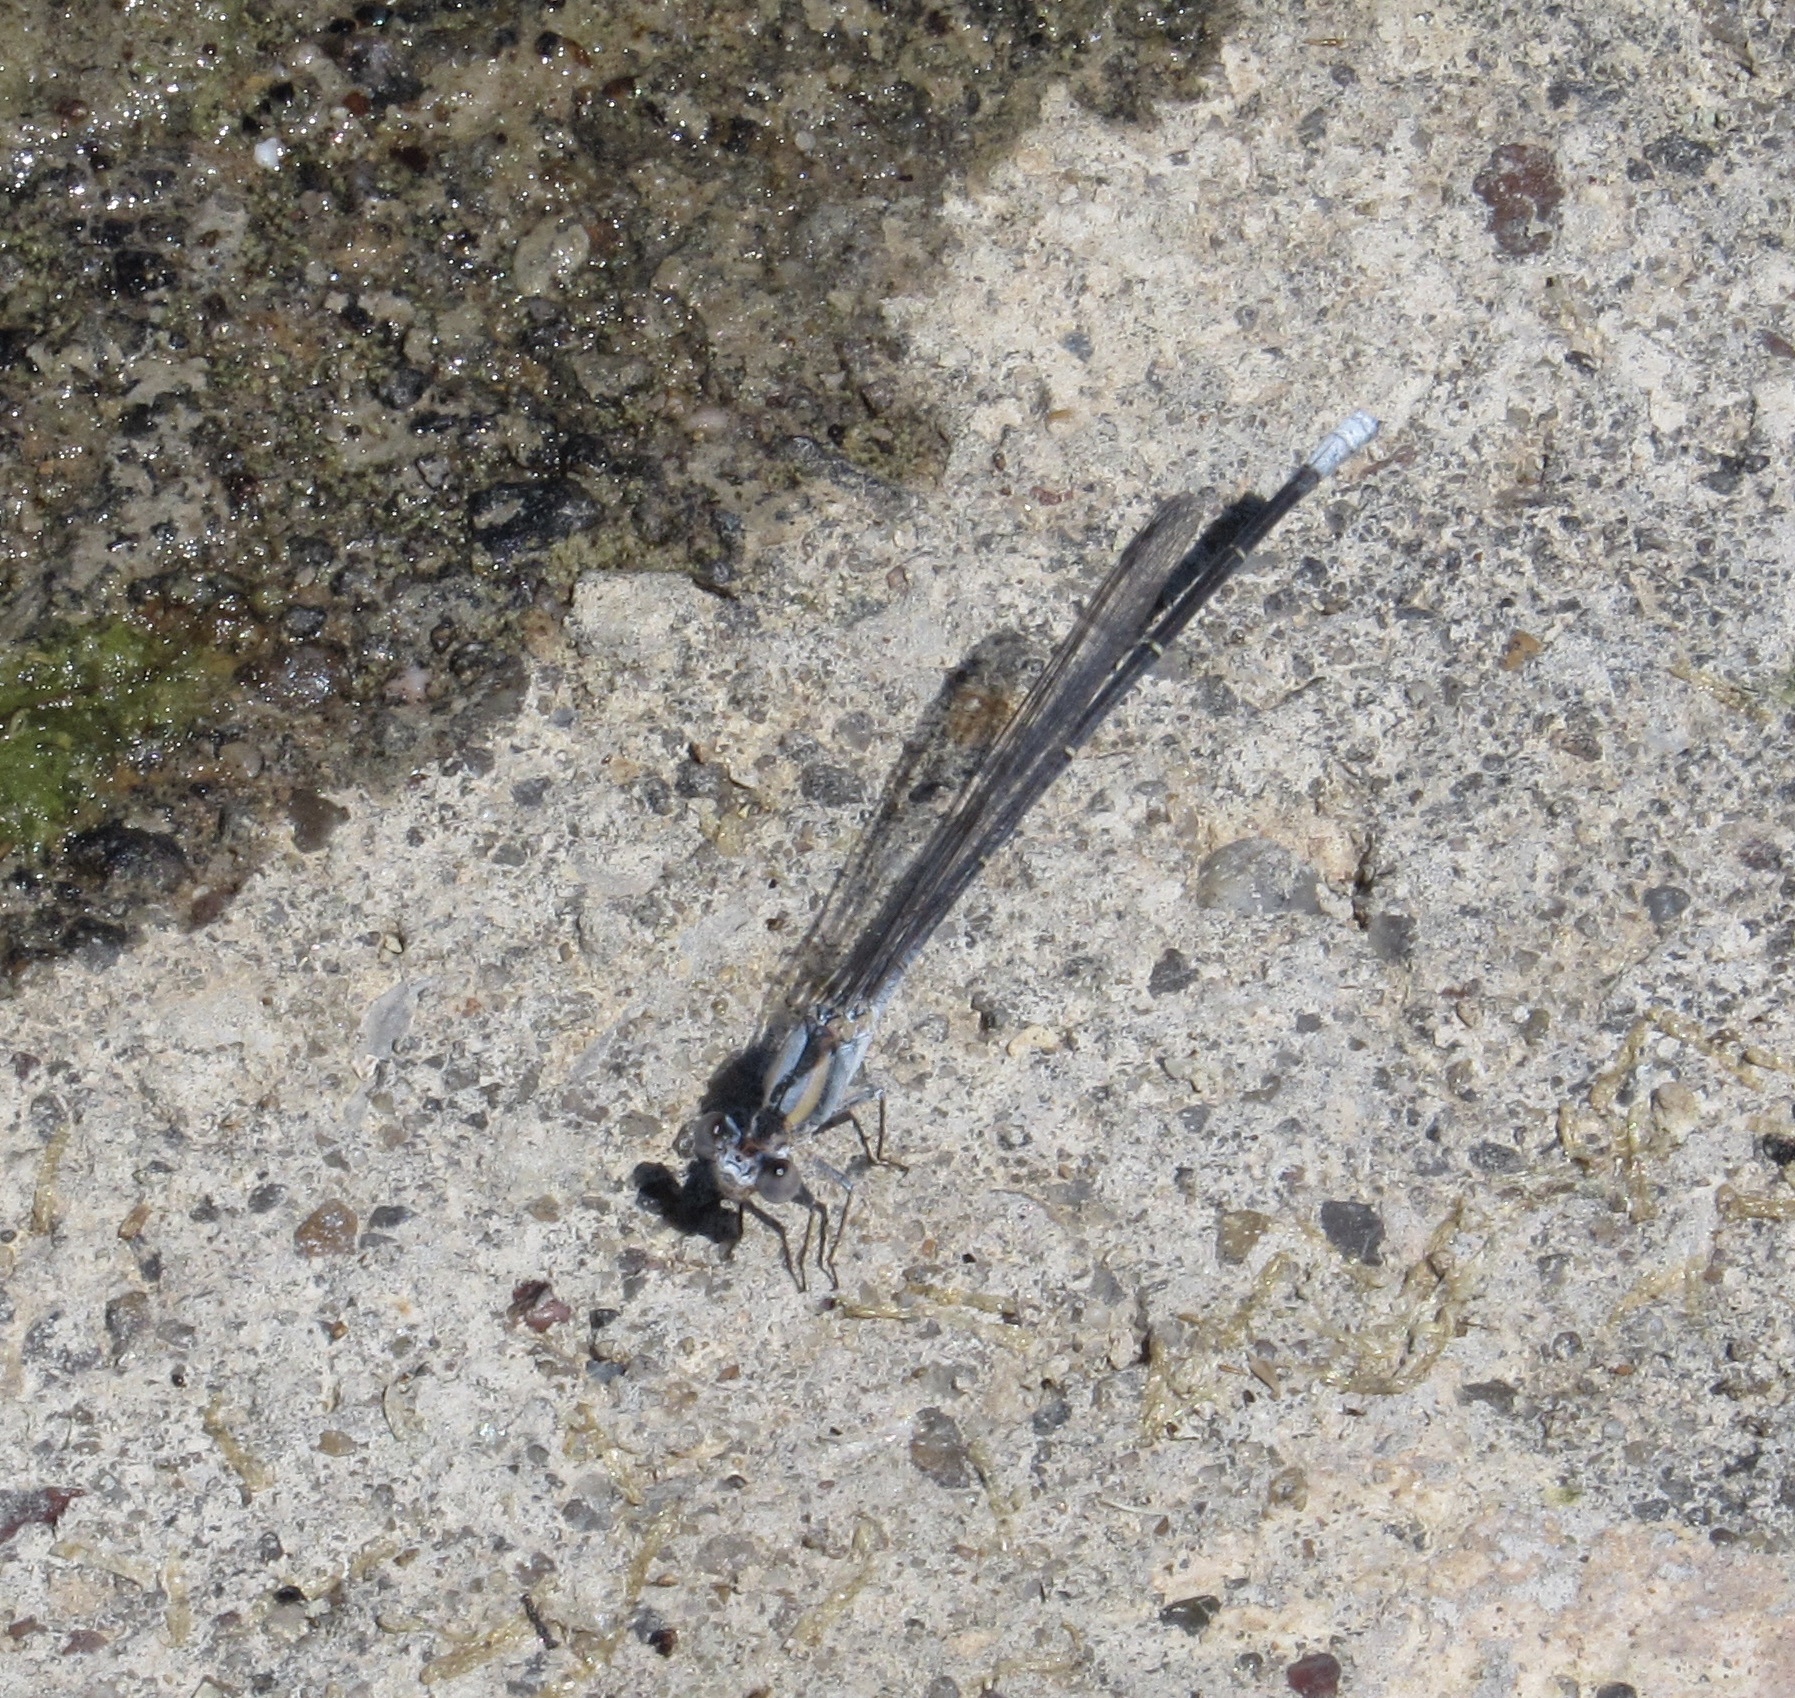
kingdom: Animalia
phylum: Arthropoda
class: Insecta
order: Odonata
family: Coenagrionidae
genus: Argia
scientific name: Argia moesta
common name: Powdered dancer
